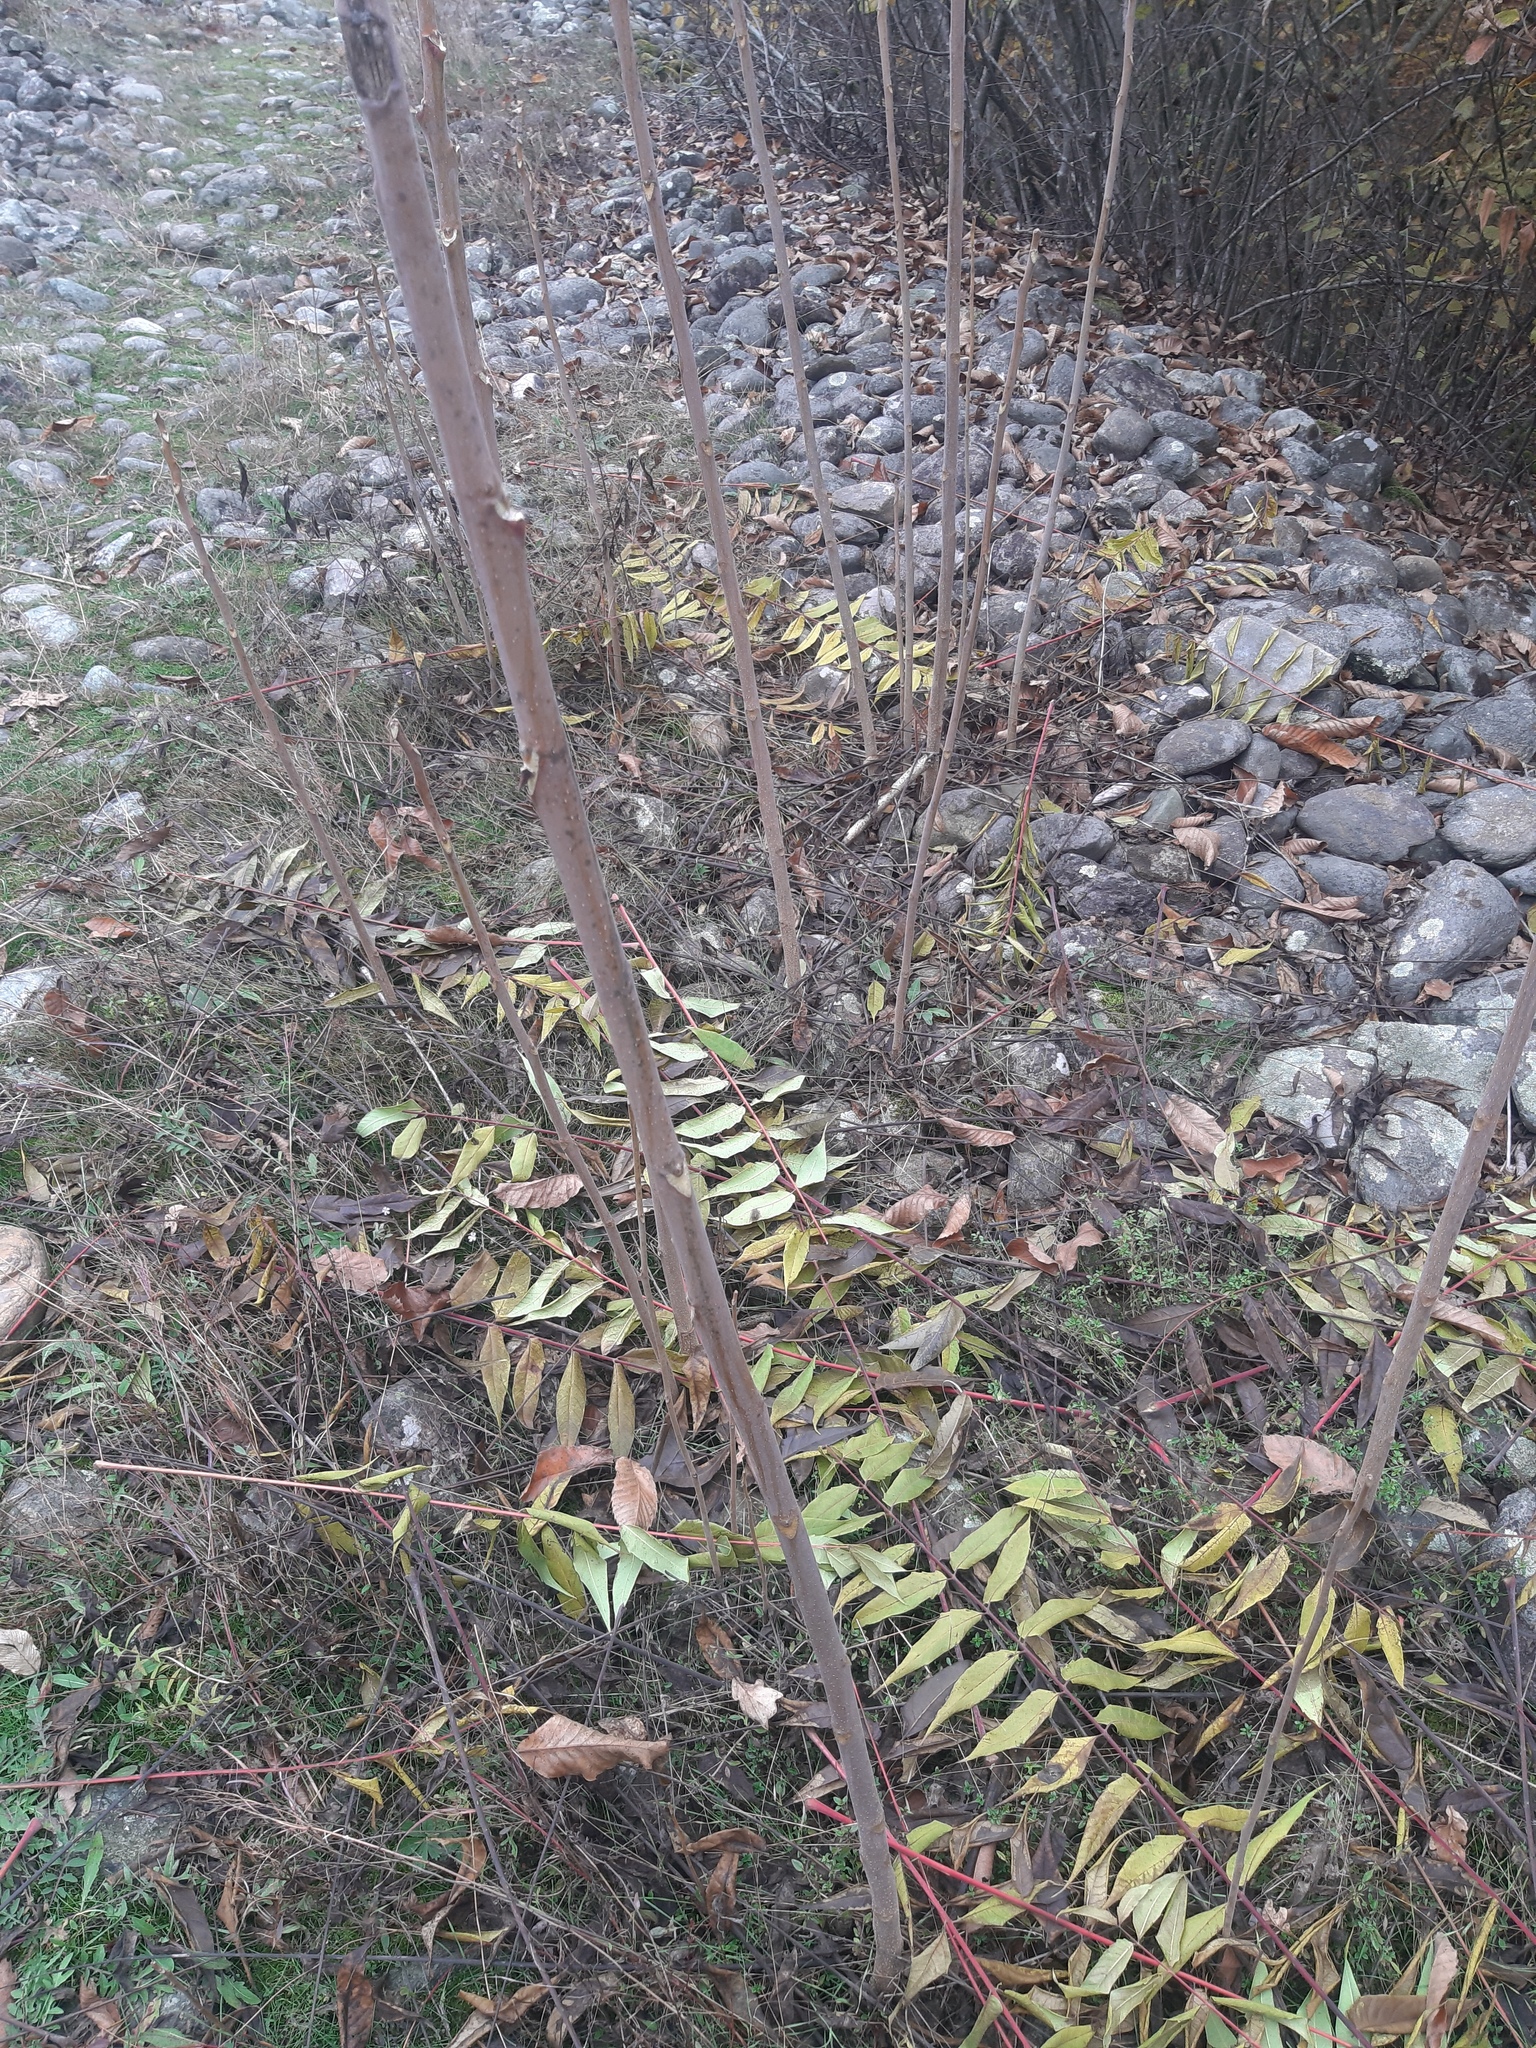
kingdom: Plantae
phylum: Tracheophyta
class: Magnoliopsida
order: Sapindales
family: Simaroubaceae
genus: Ailanthus
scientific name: Ailanthus altissima
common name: Tree-of-heaven
